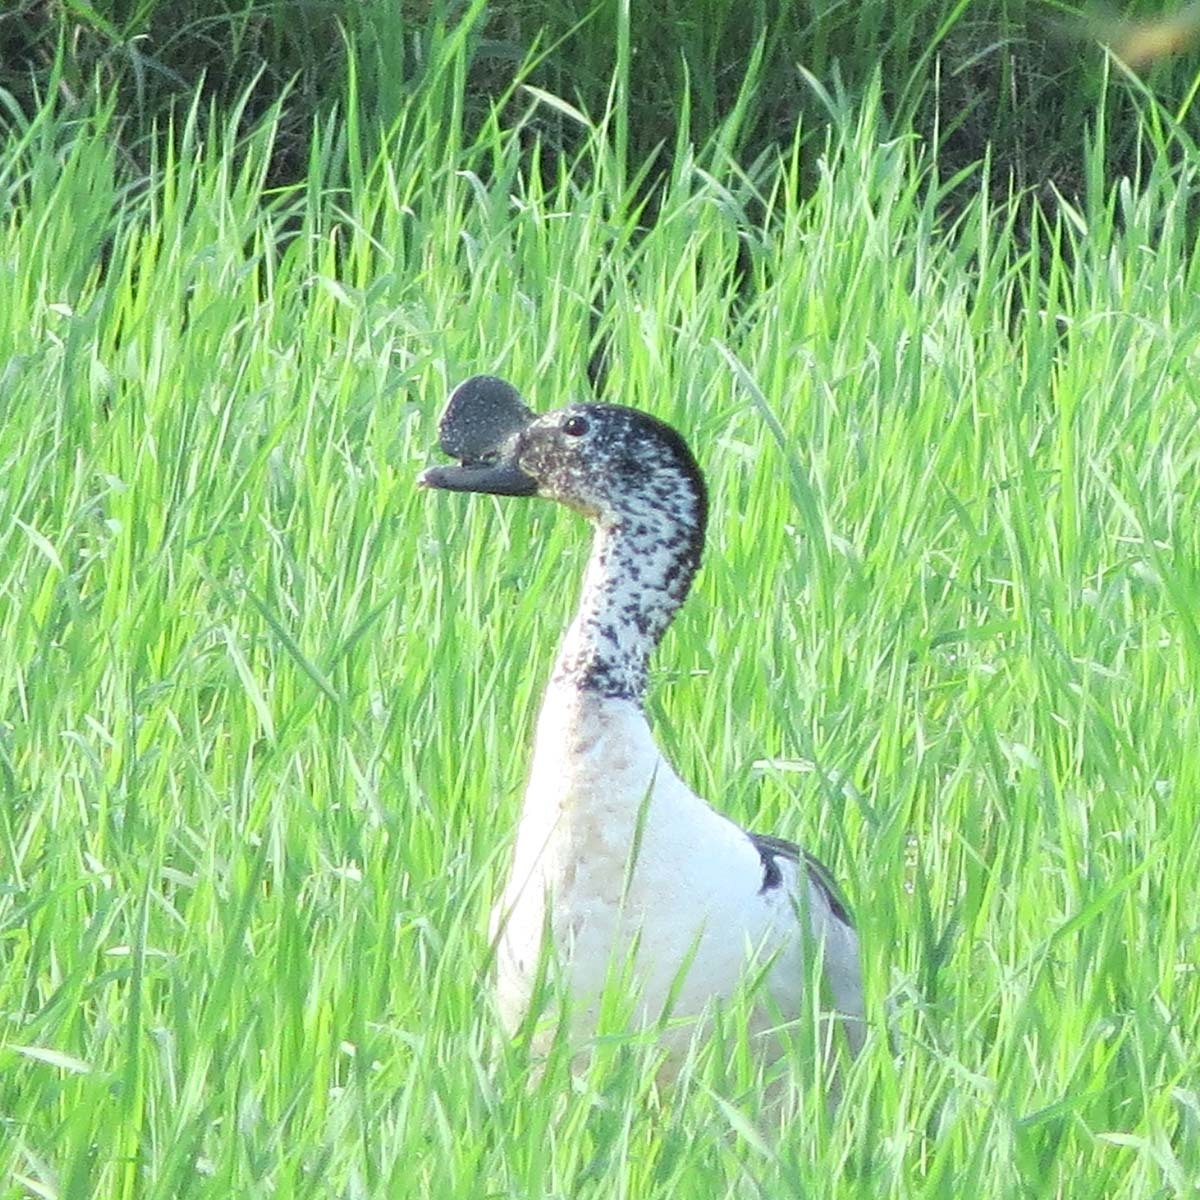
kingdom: Animalia
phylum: Chordata
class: Aves
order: Anseriformes
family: Anatidae
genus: Sarkidiornis
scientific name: Sarkidiornis melanotos
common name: Comb duck
